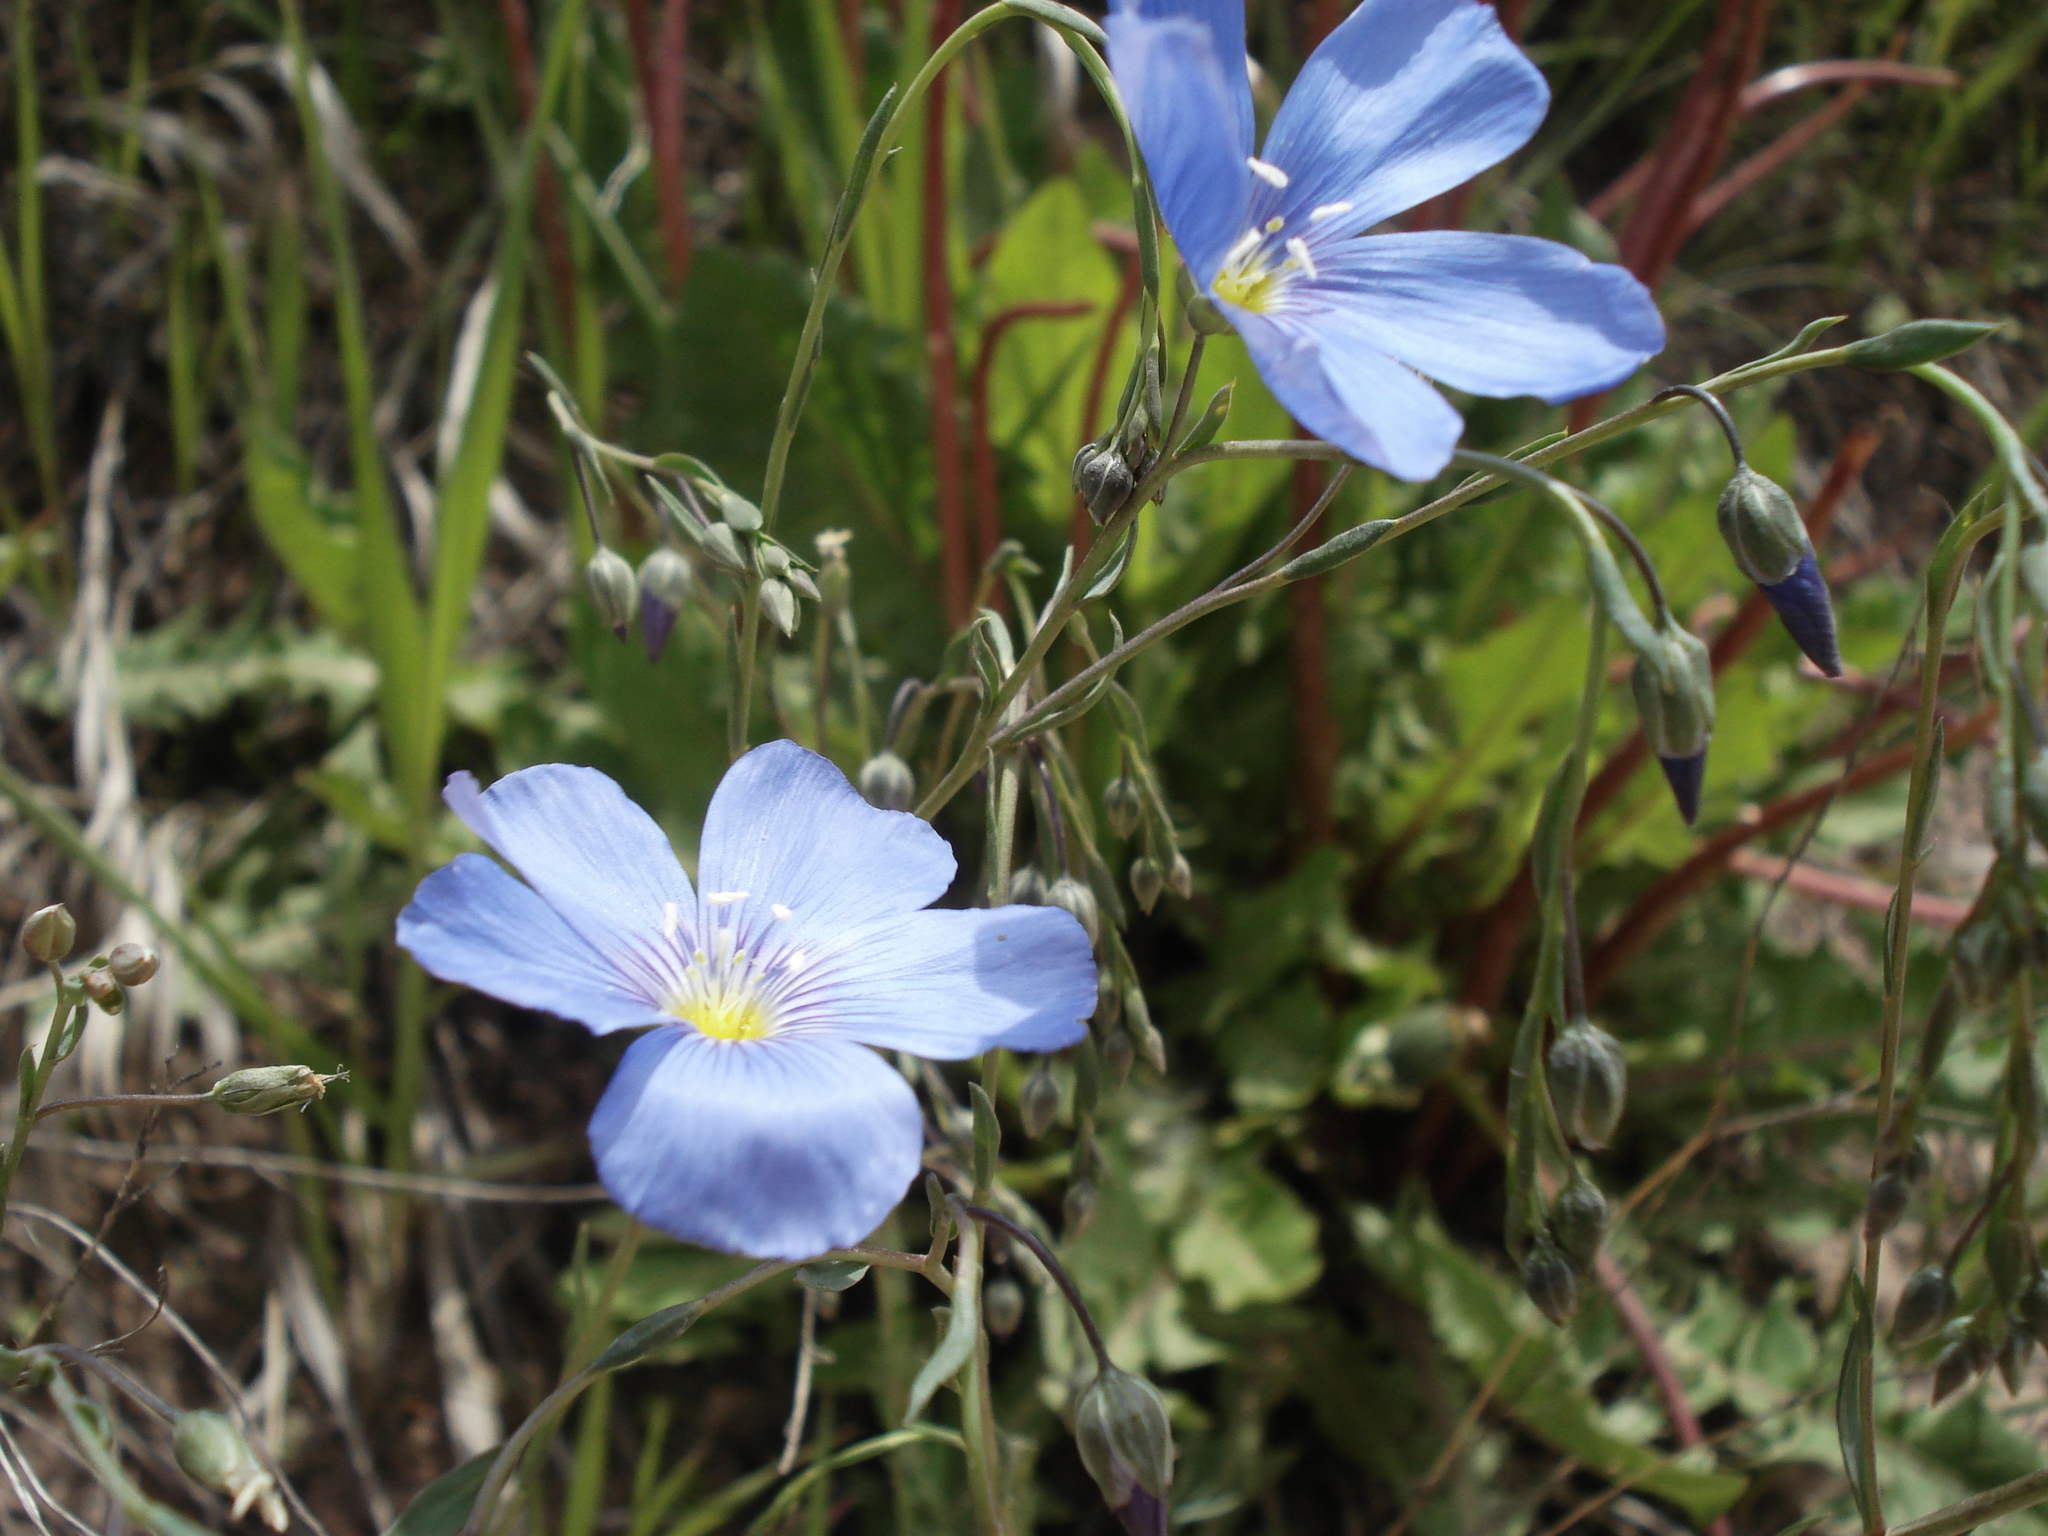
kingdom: Plantae
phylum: Tracheophyta
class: Magnoliopsida
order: Malpighiales
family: Linaceae
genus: Linum
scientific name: Linum lewisii
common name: Prairie flax
